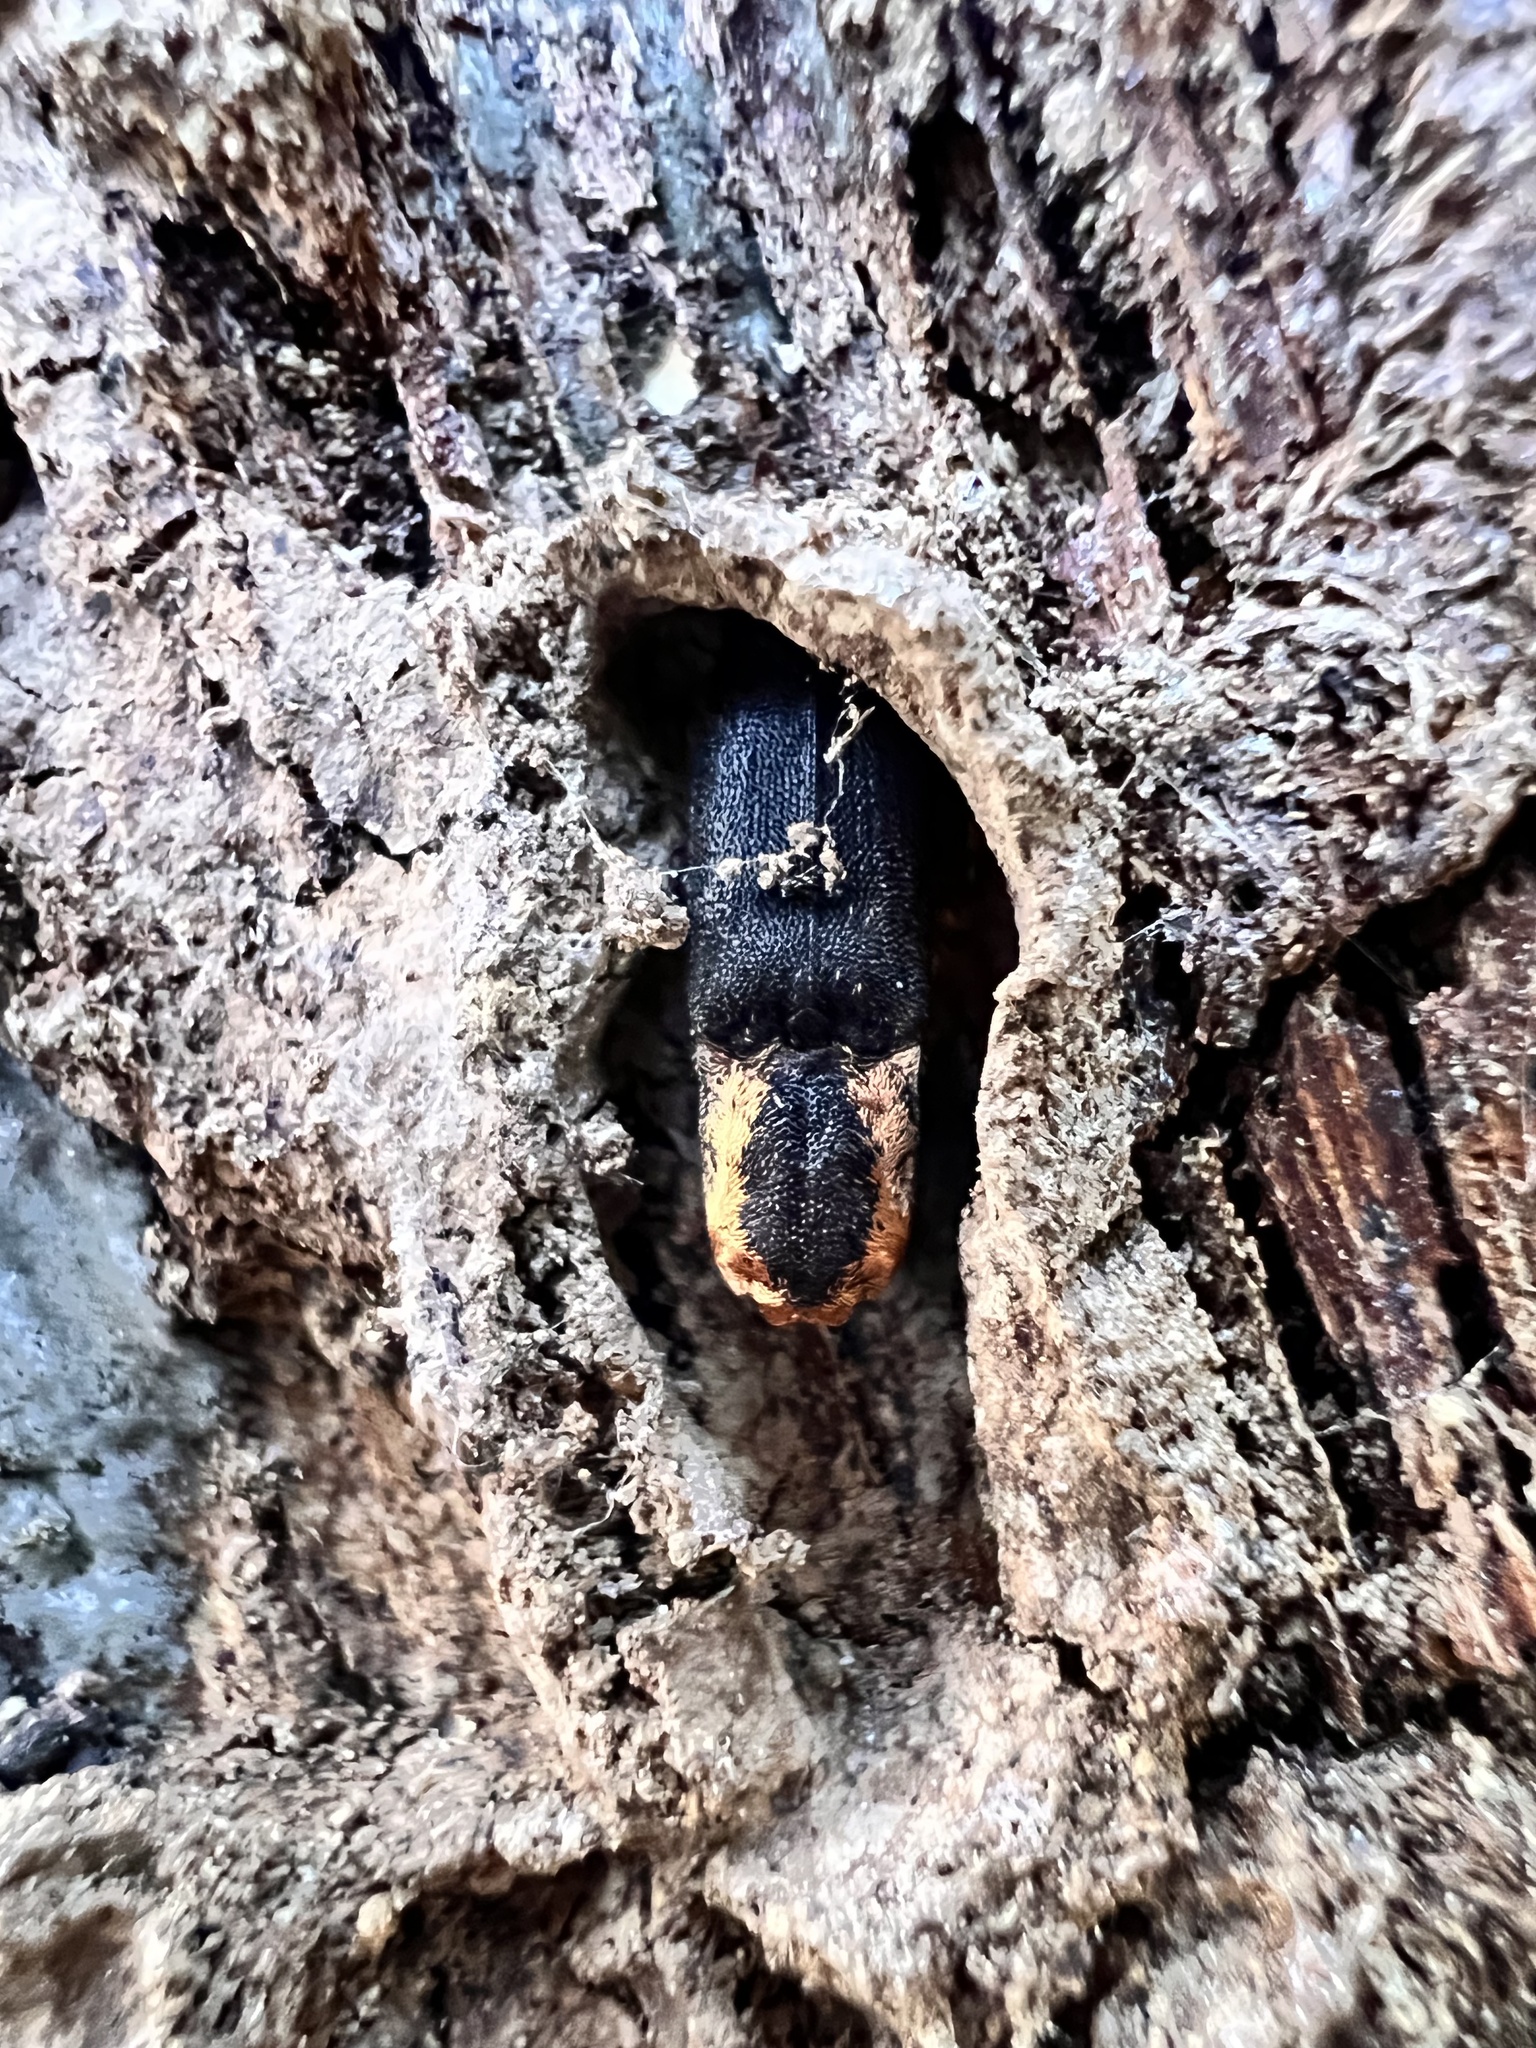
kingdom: Animalia
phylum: Arthropoda
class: Insecta
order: Coleoptera
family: Elateridae
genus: Lacon
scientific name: Lacon discoideus
